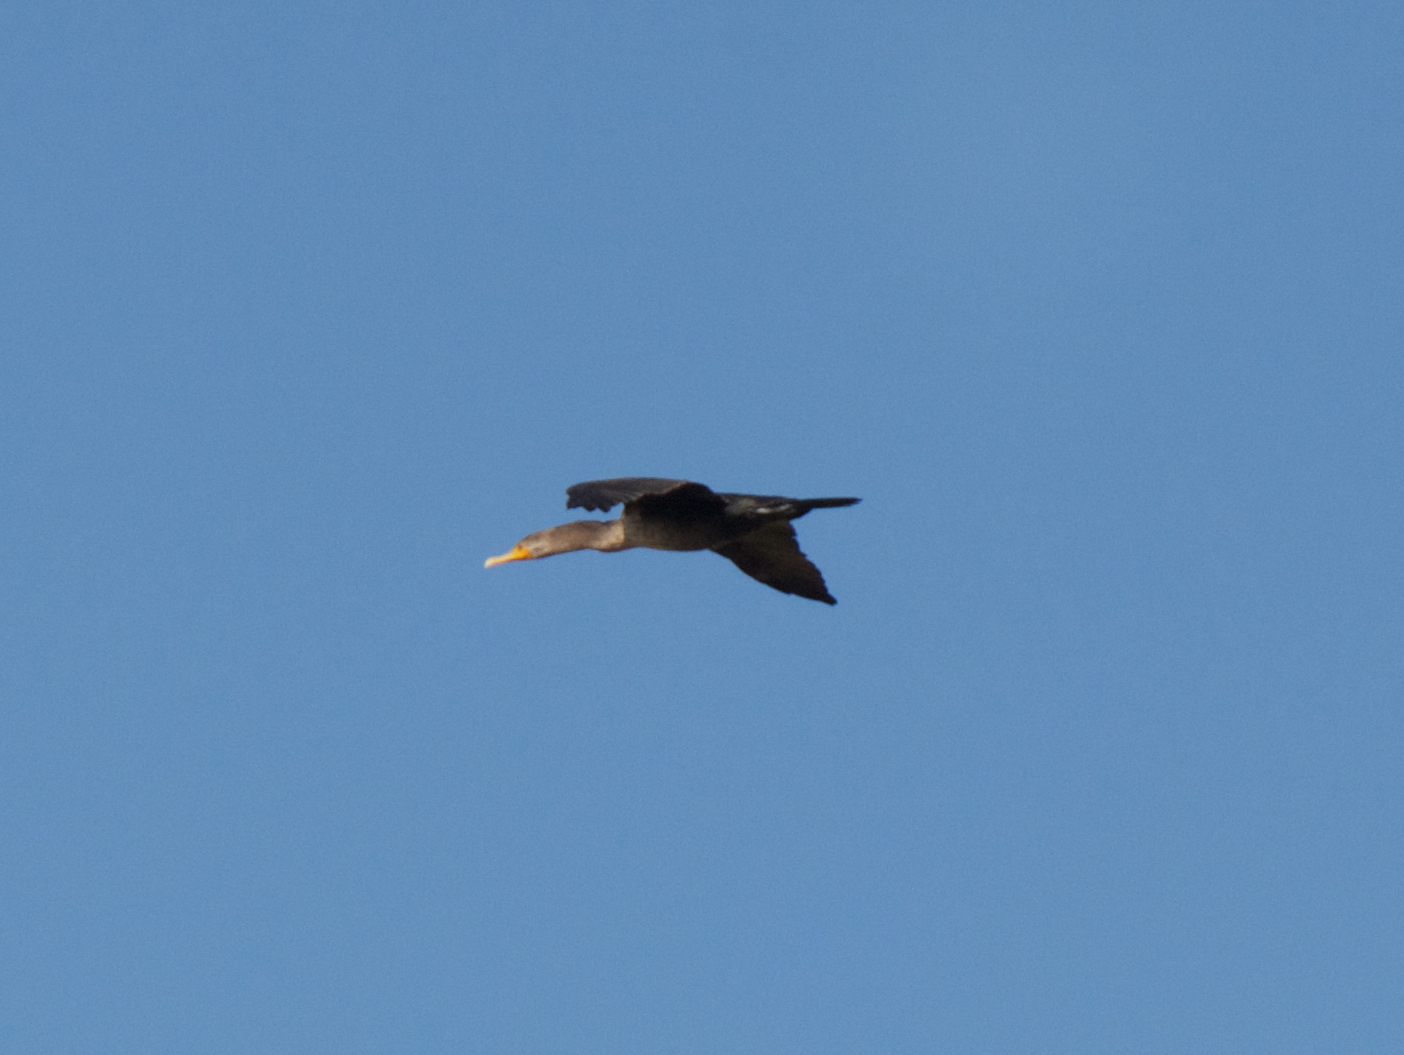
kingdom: Animalia
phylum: Chordata
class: Aves
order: Suliformes
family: Phalacrocoracidae
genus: Phalacrocorax
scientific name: Phalacrocorax auritus
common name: Double-crested cormorant
